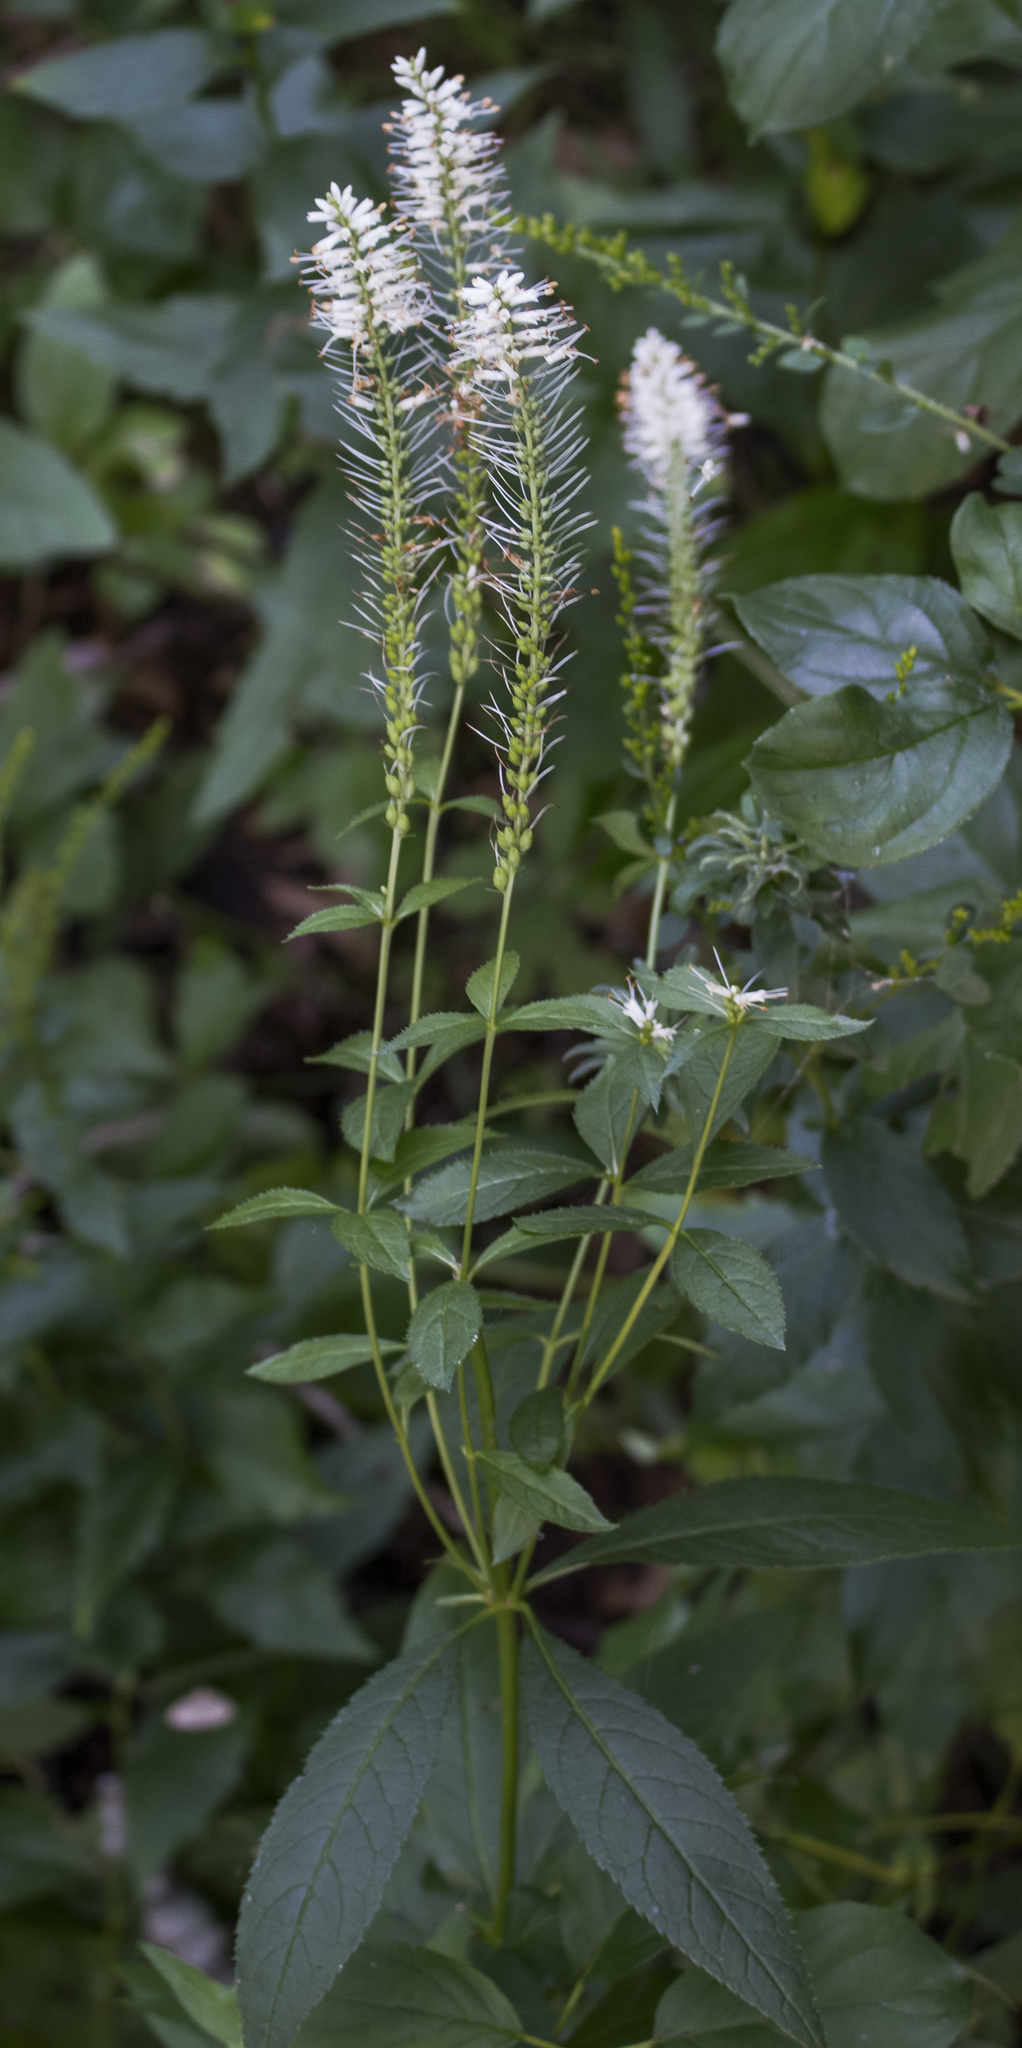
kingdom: Plantae
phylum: Tracheophyta
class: Magnoliopsida
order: Lamiales
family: Plantaginaceae
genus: Veronicastrum
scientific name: Veronicastrum virginicum
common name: Blackroot
